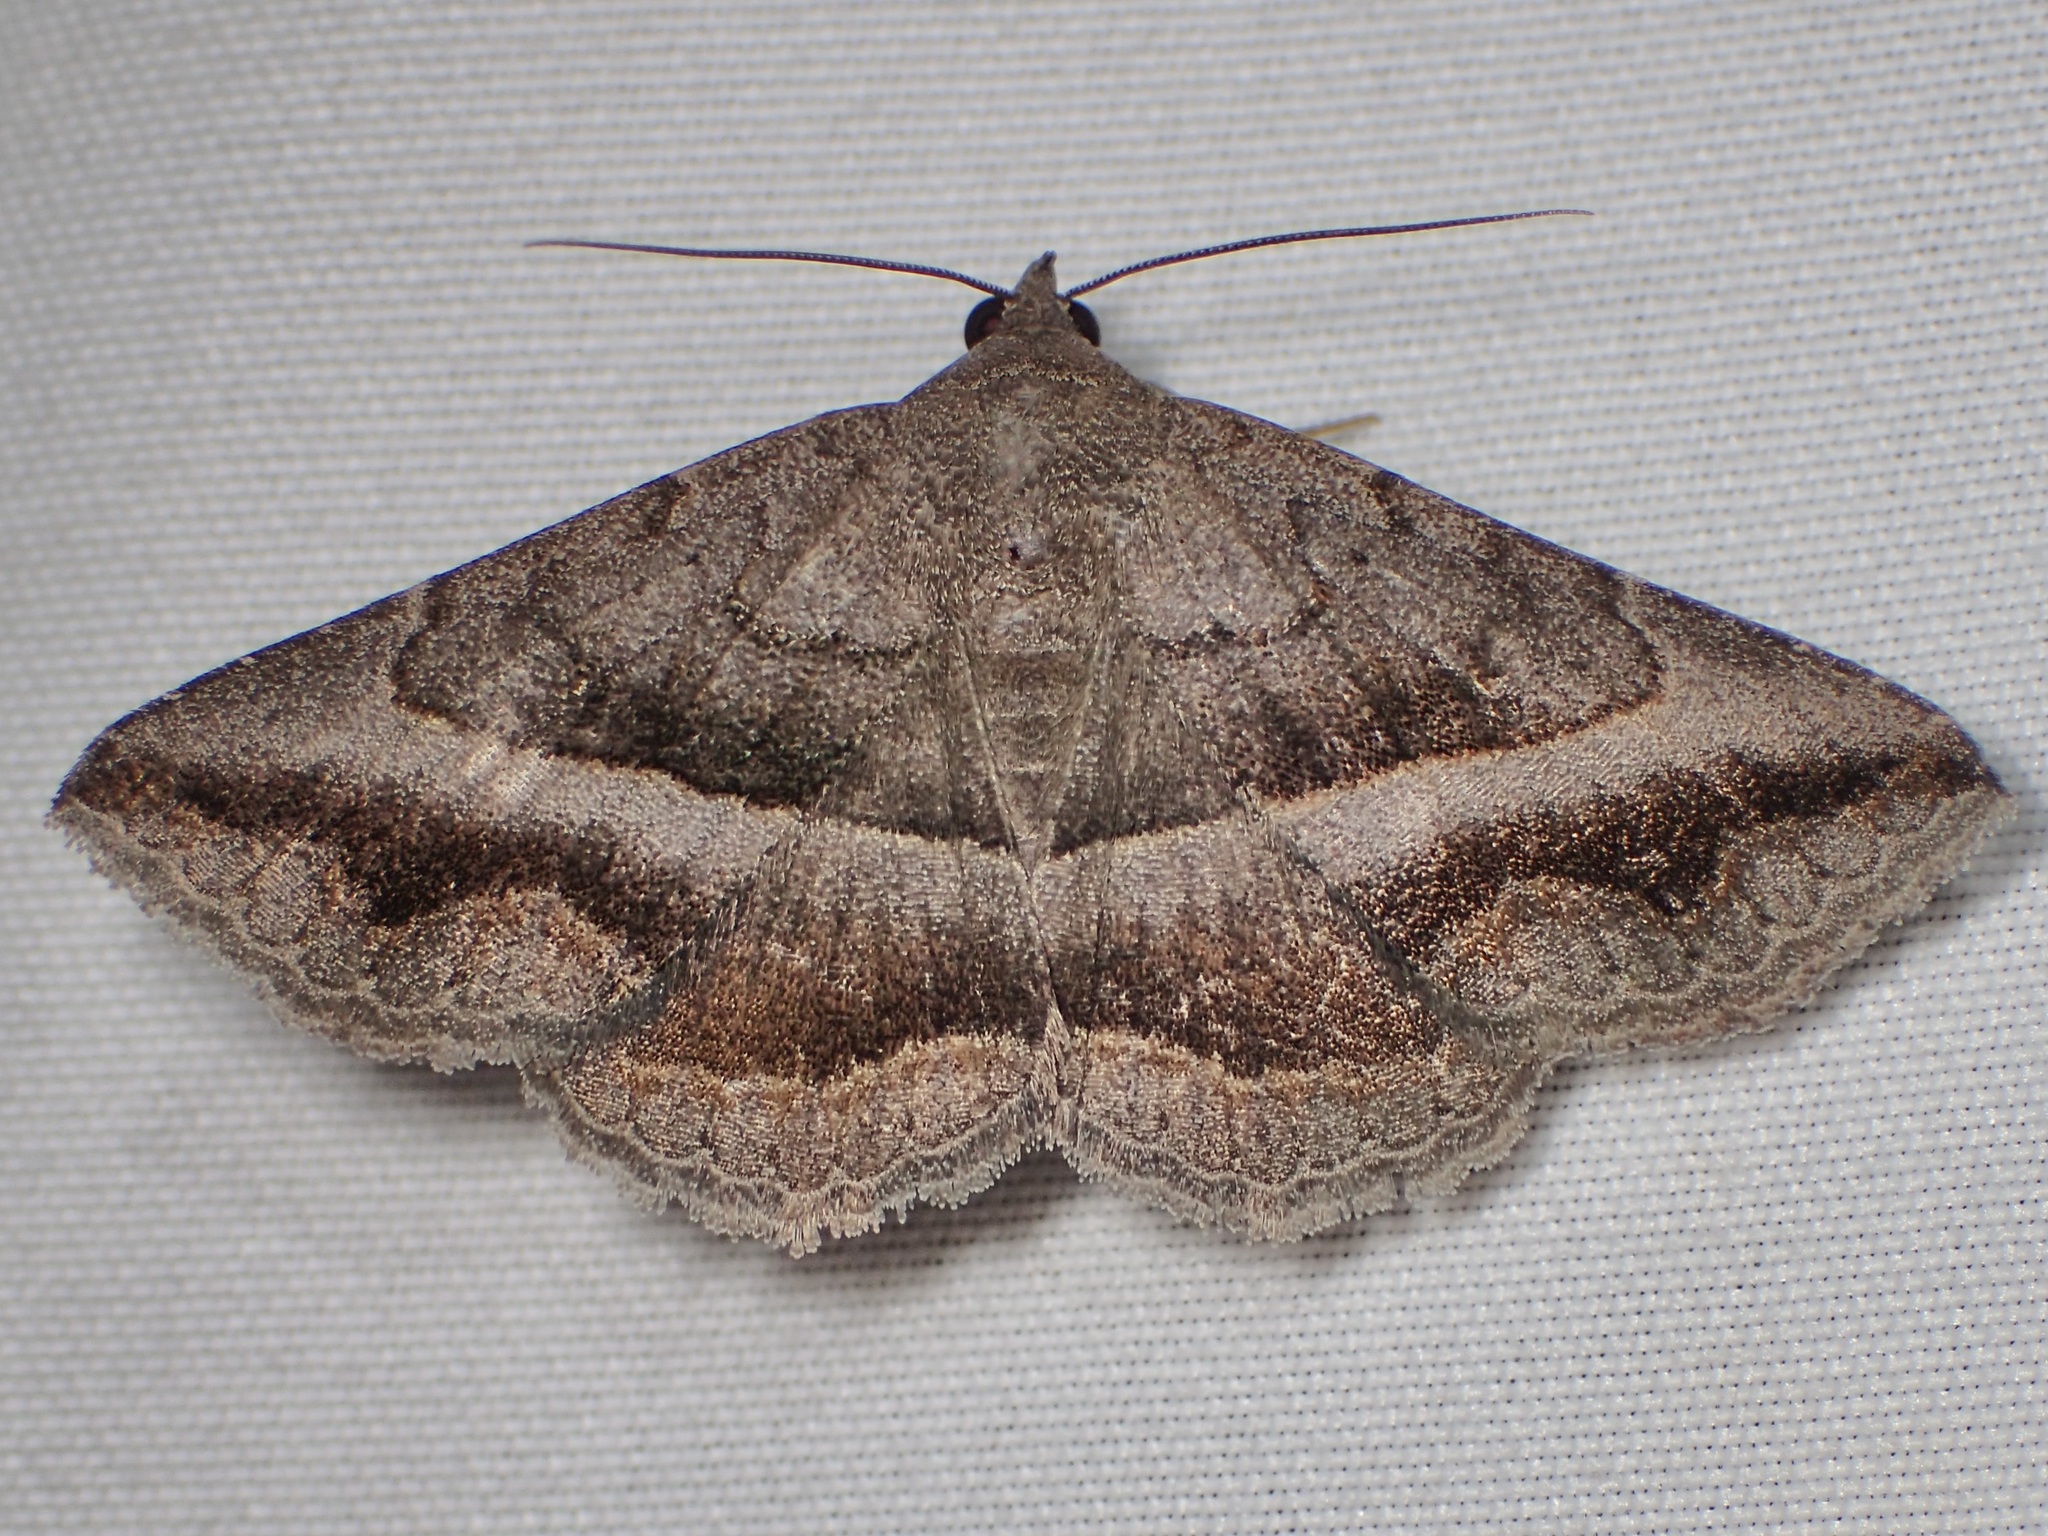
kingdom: Animalia
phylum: Arthropoda
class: Insecta
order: Lepidoptera
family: Erebidae
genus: Lesmone
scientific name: Lesmone griseipennis
